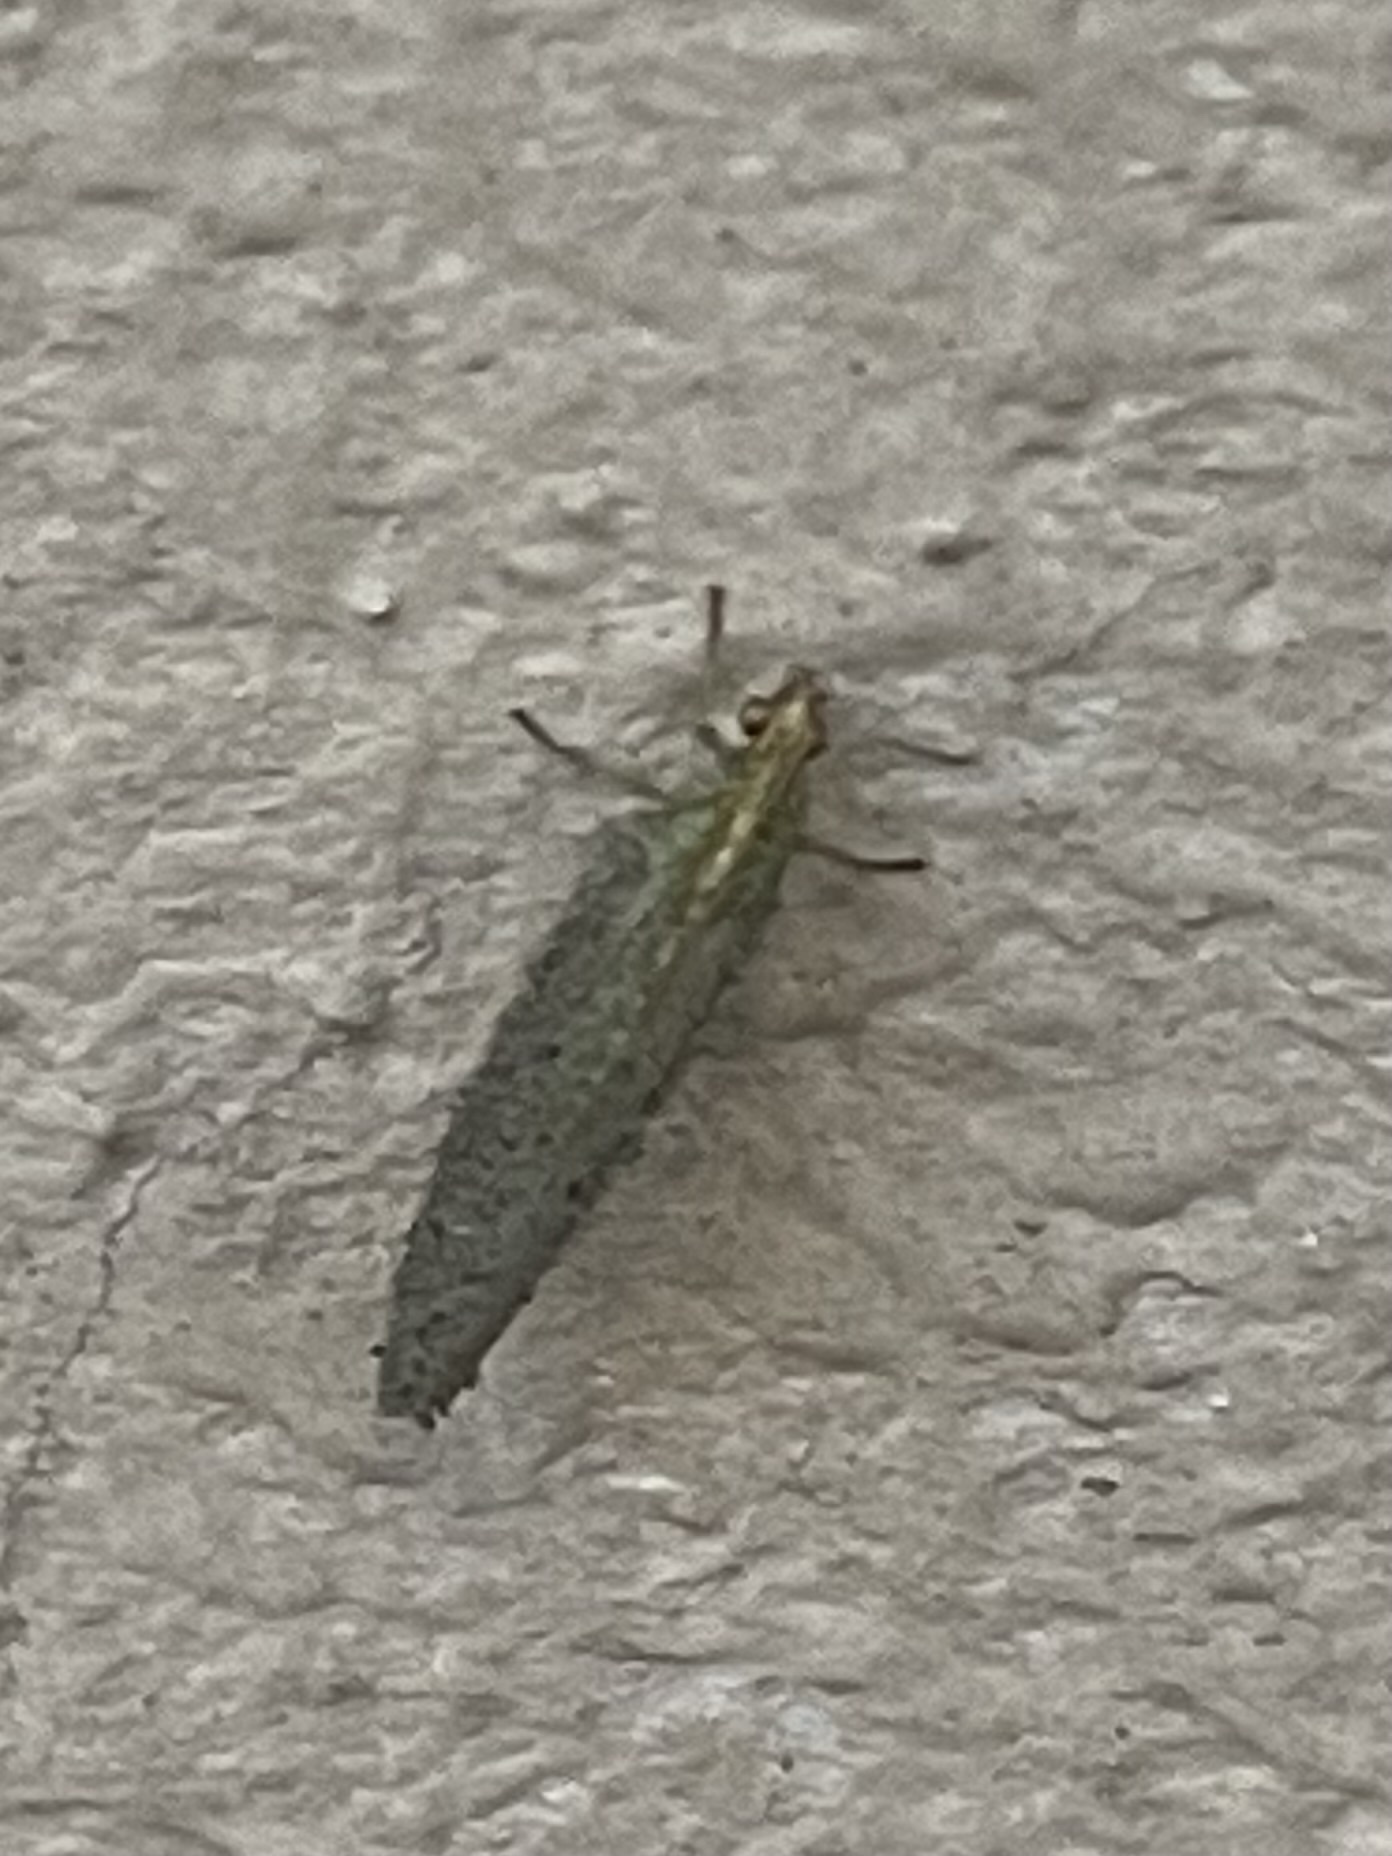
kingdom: Animalia
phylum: Arthropoda
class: Insecta
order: Neuroptera
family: Chrysopidae
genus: Chrysoperla
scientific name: Chrysoperla
